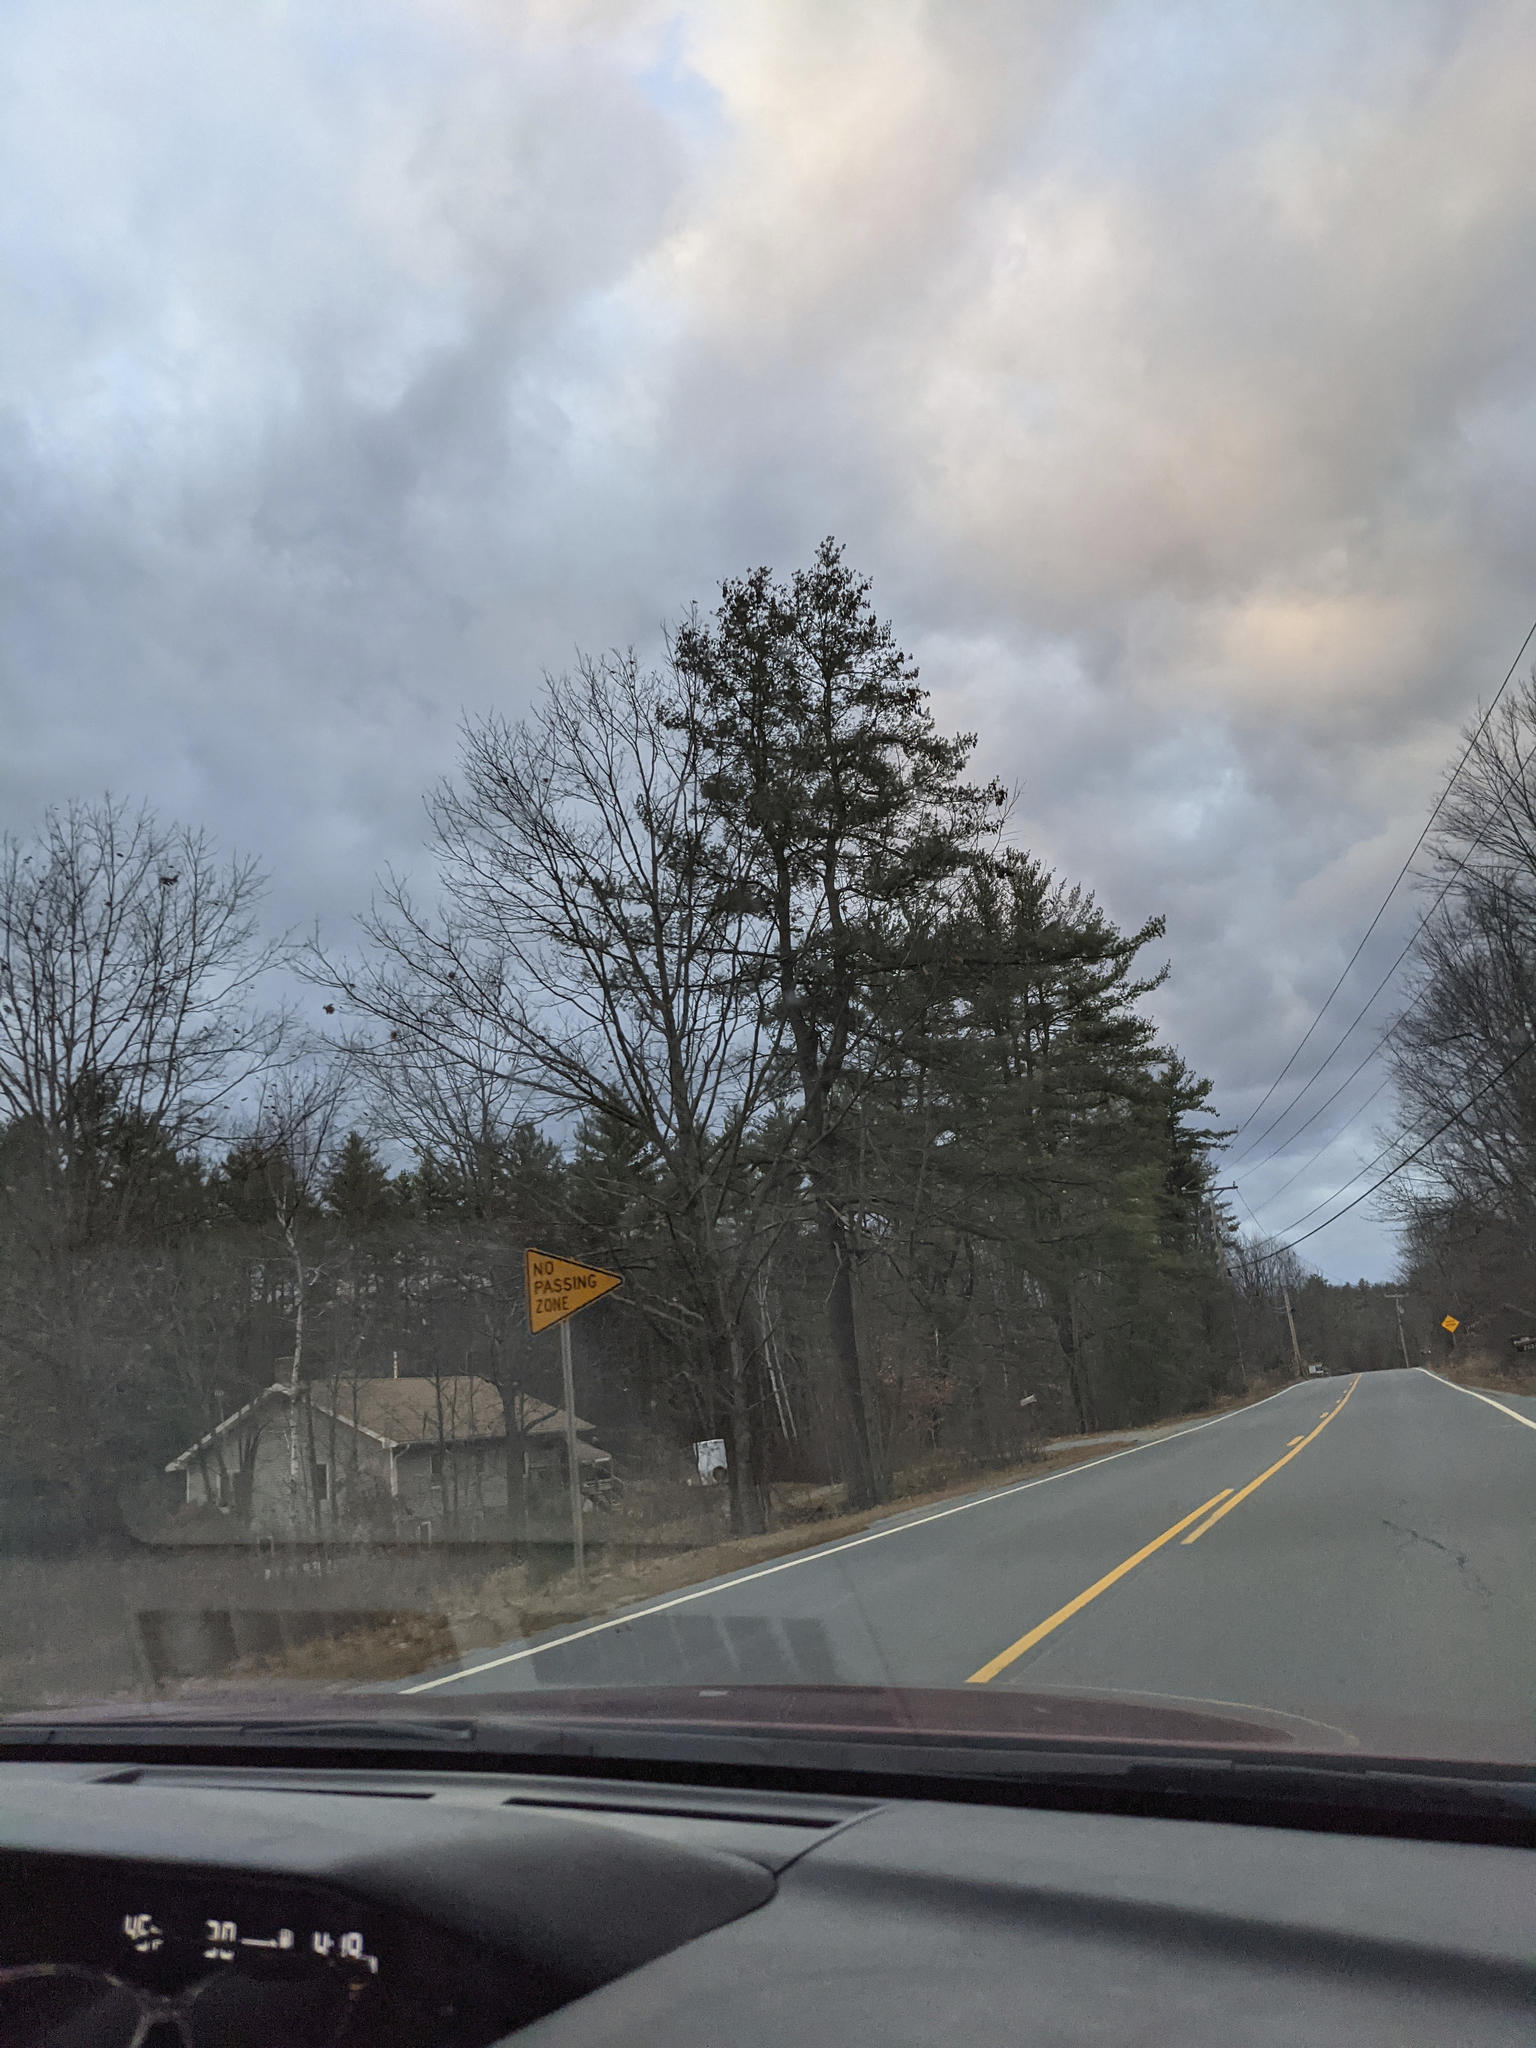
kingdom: Plantae
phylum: Tracheophyta
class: Pinopsida
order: Pinales
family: Pinaceae
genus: Pinus
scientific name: Pinus strobus
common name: Weymouth pine
